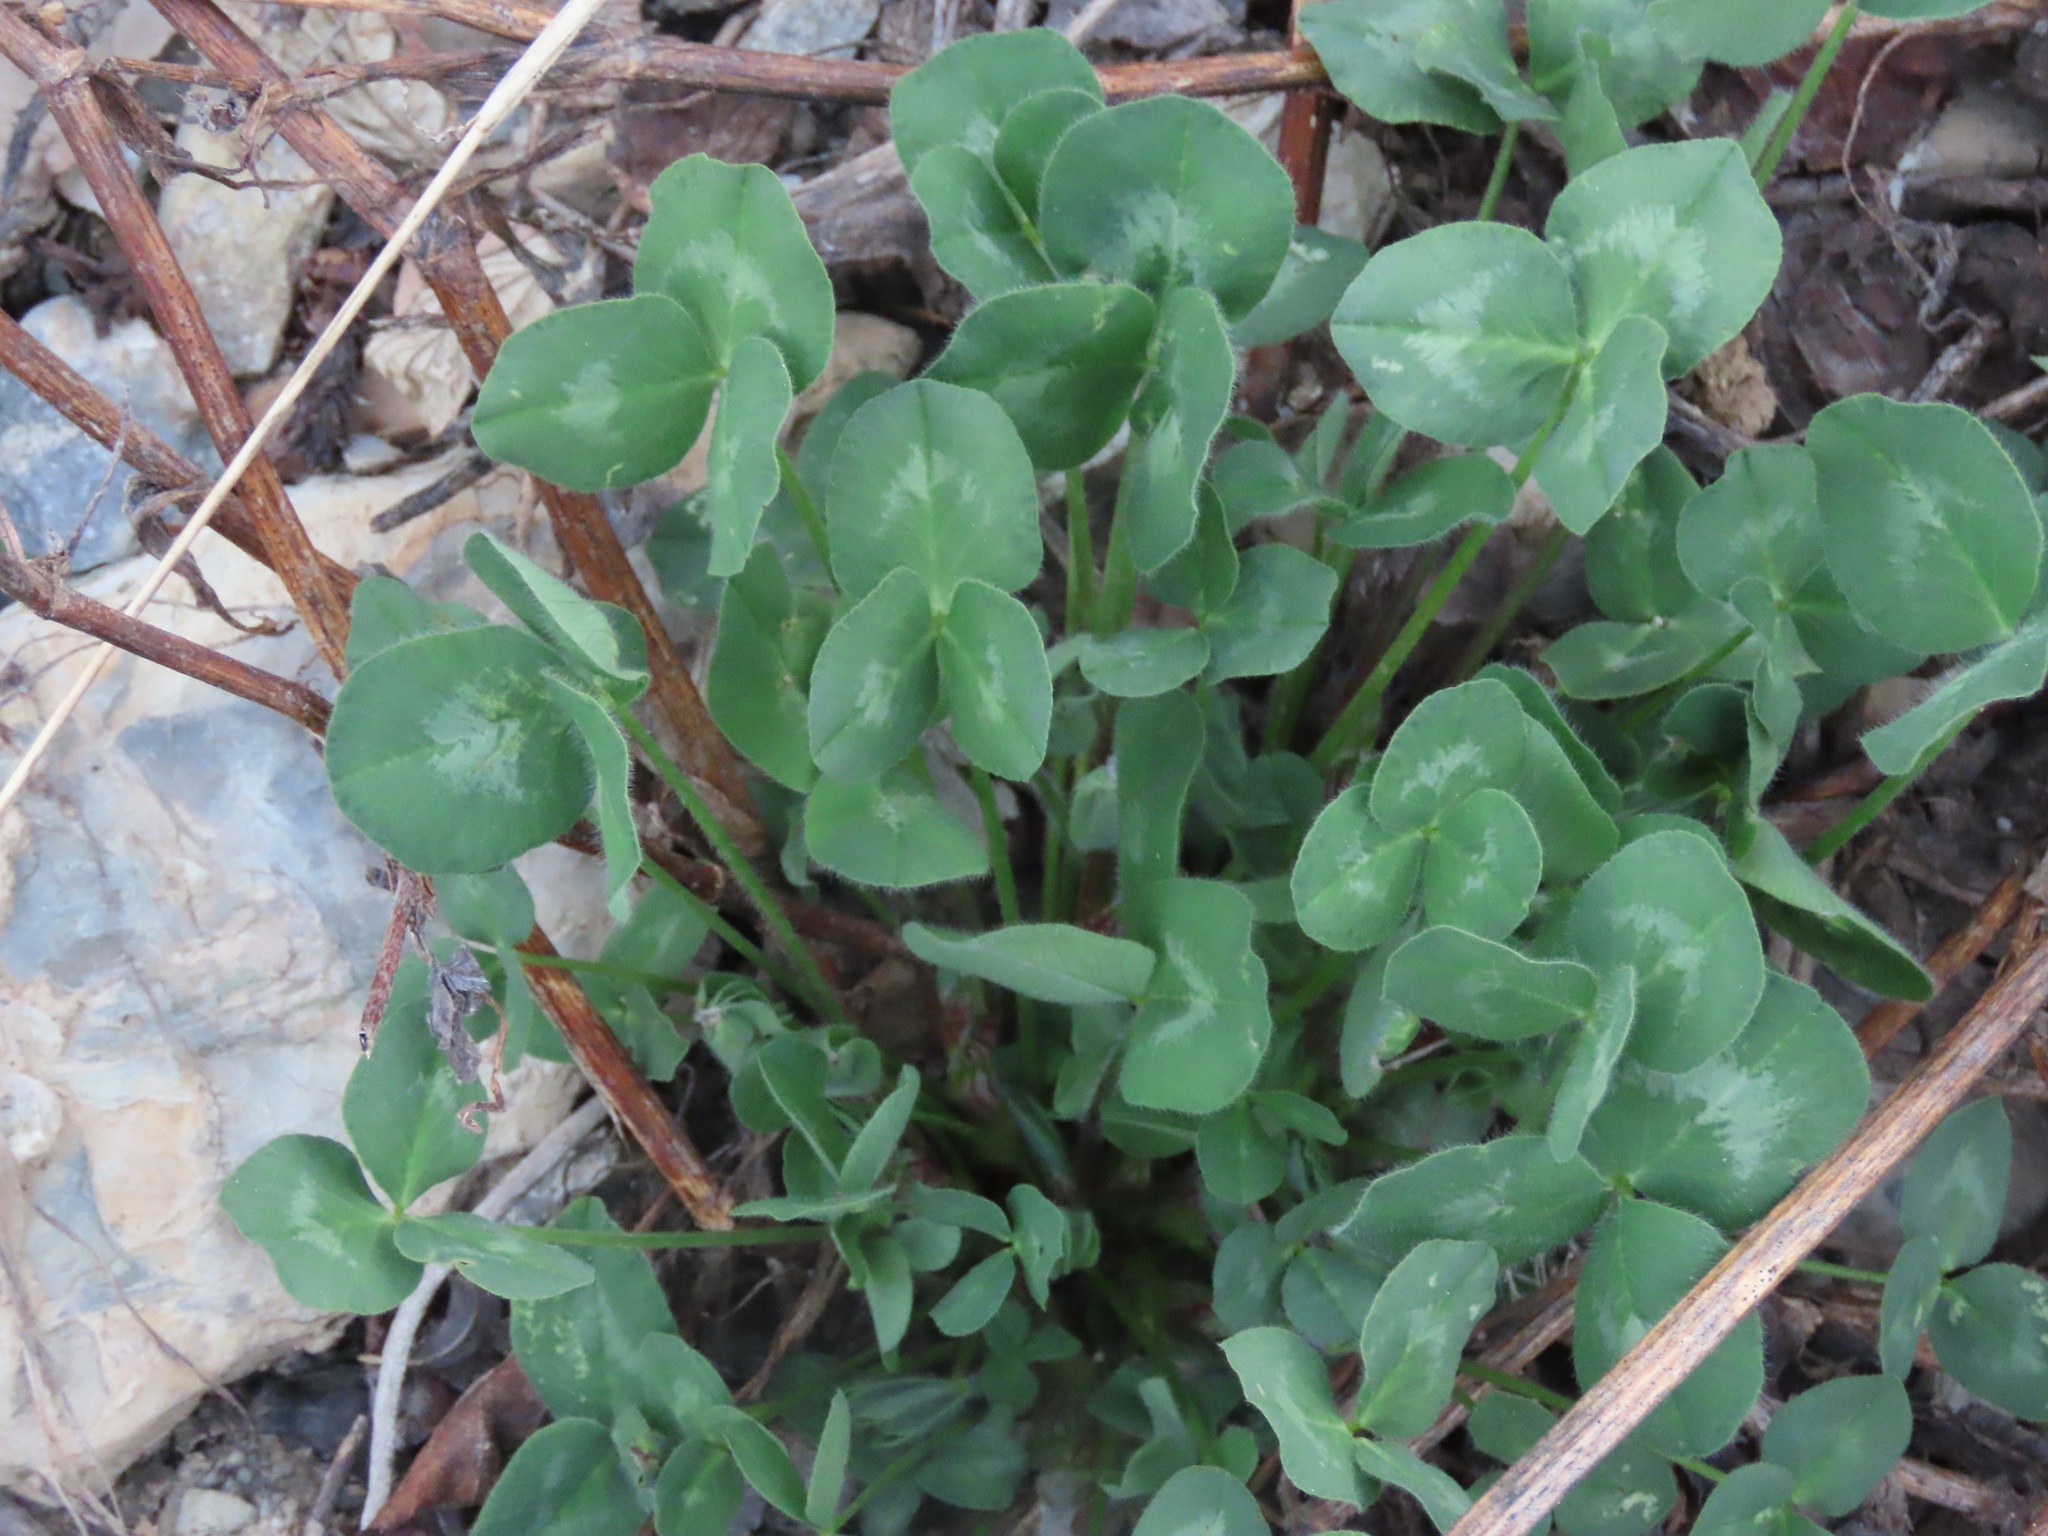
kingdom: Plantae
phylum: Tracheophyta
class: Magnoliopsida
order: Fabales
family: Fabaceae
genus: Trifolium
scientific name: Trifolium pratense
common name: Red clover
